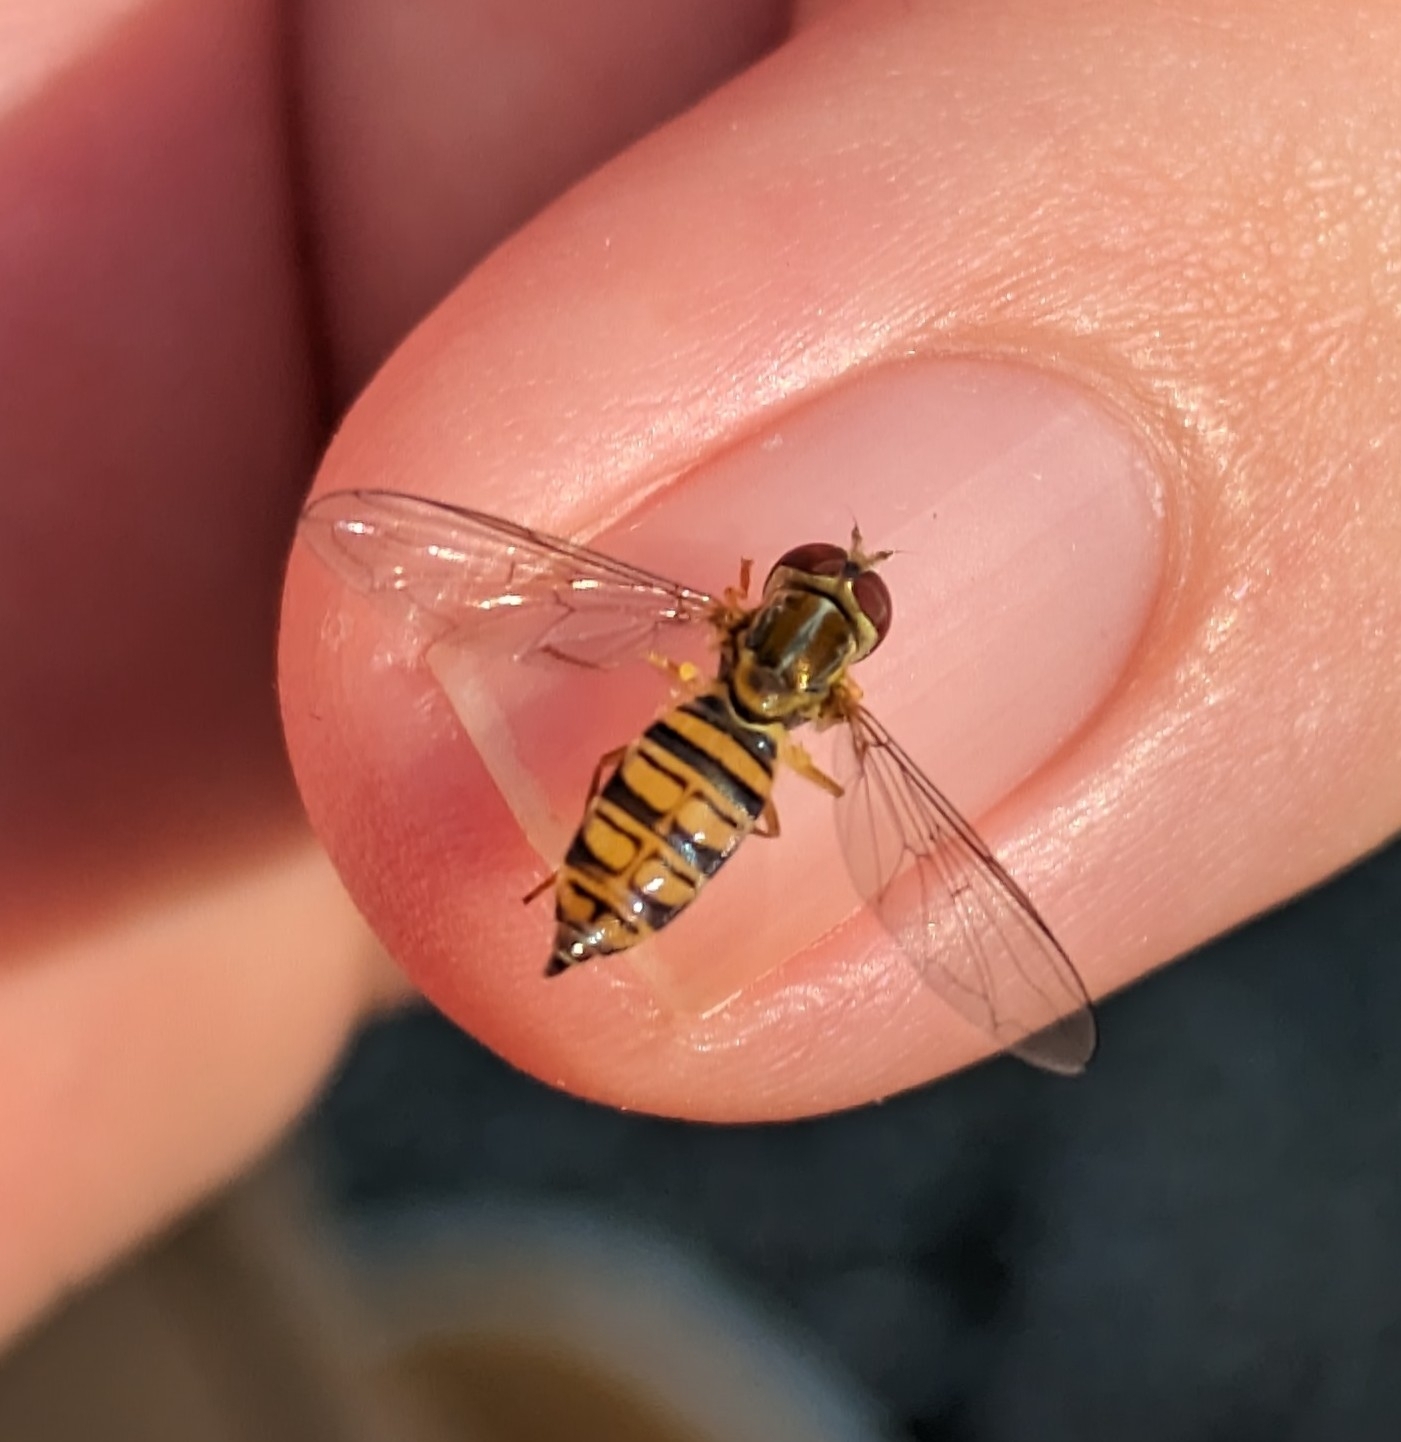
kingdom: Animalia
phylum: Arthropoda
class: Insecta
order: Diptera
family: Syrphidae
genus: Toxomerus
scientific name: Toxomerus politus
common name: Maize calligrapher
